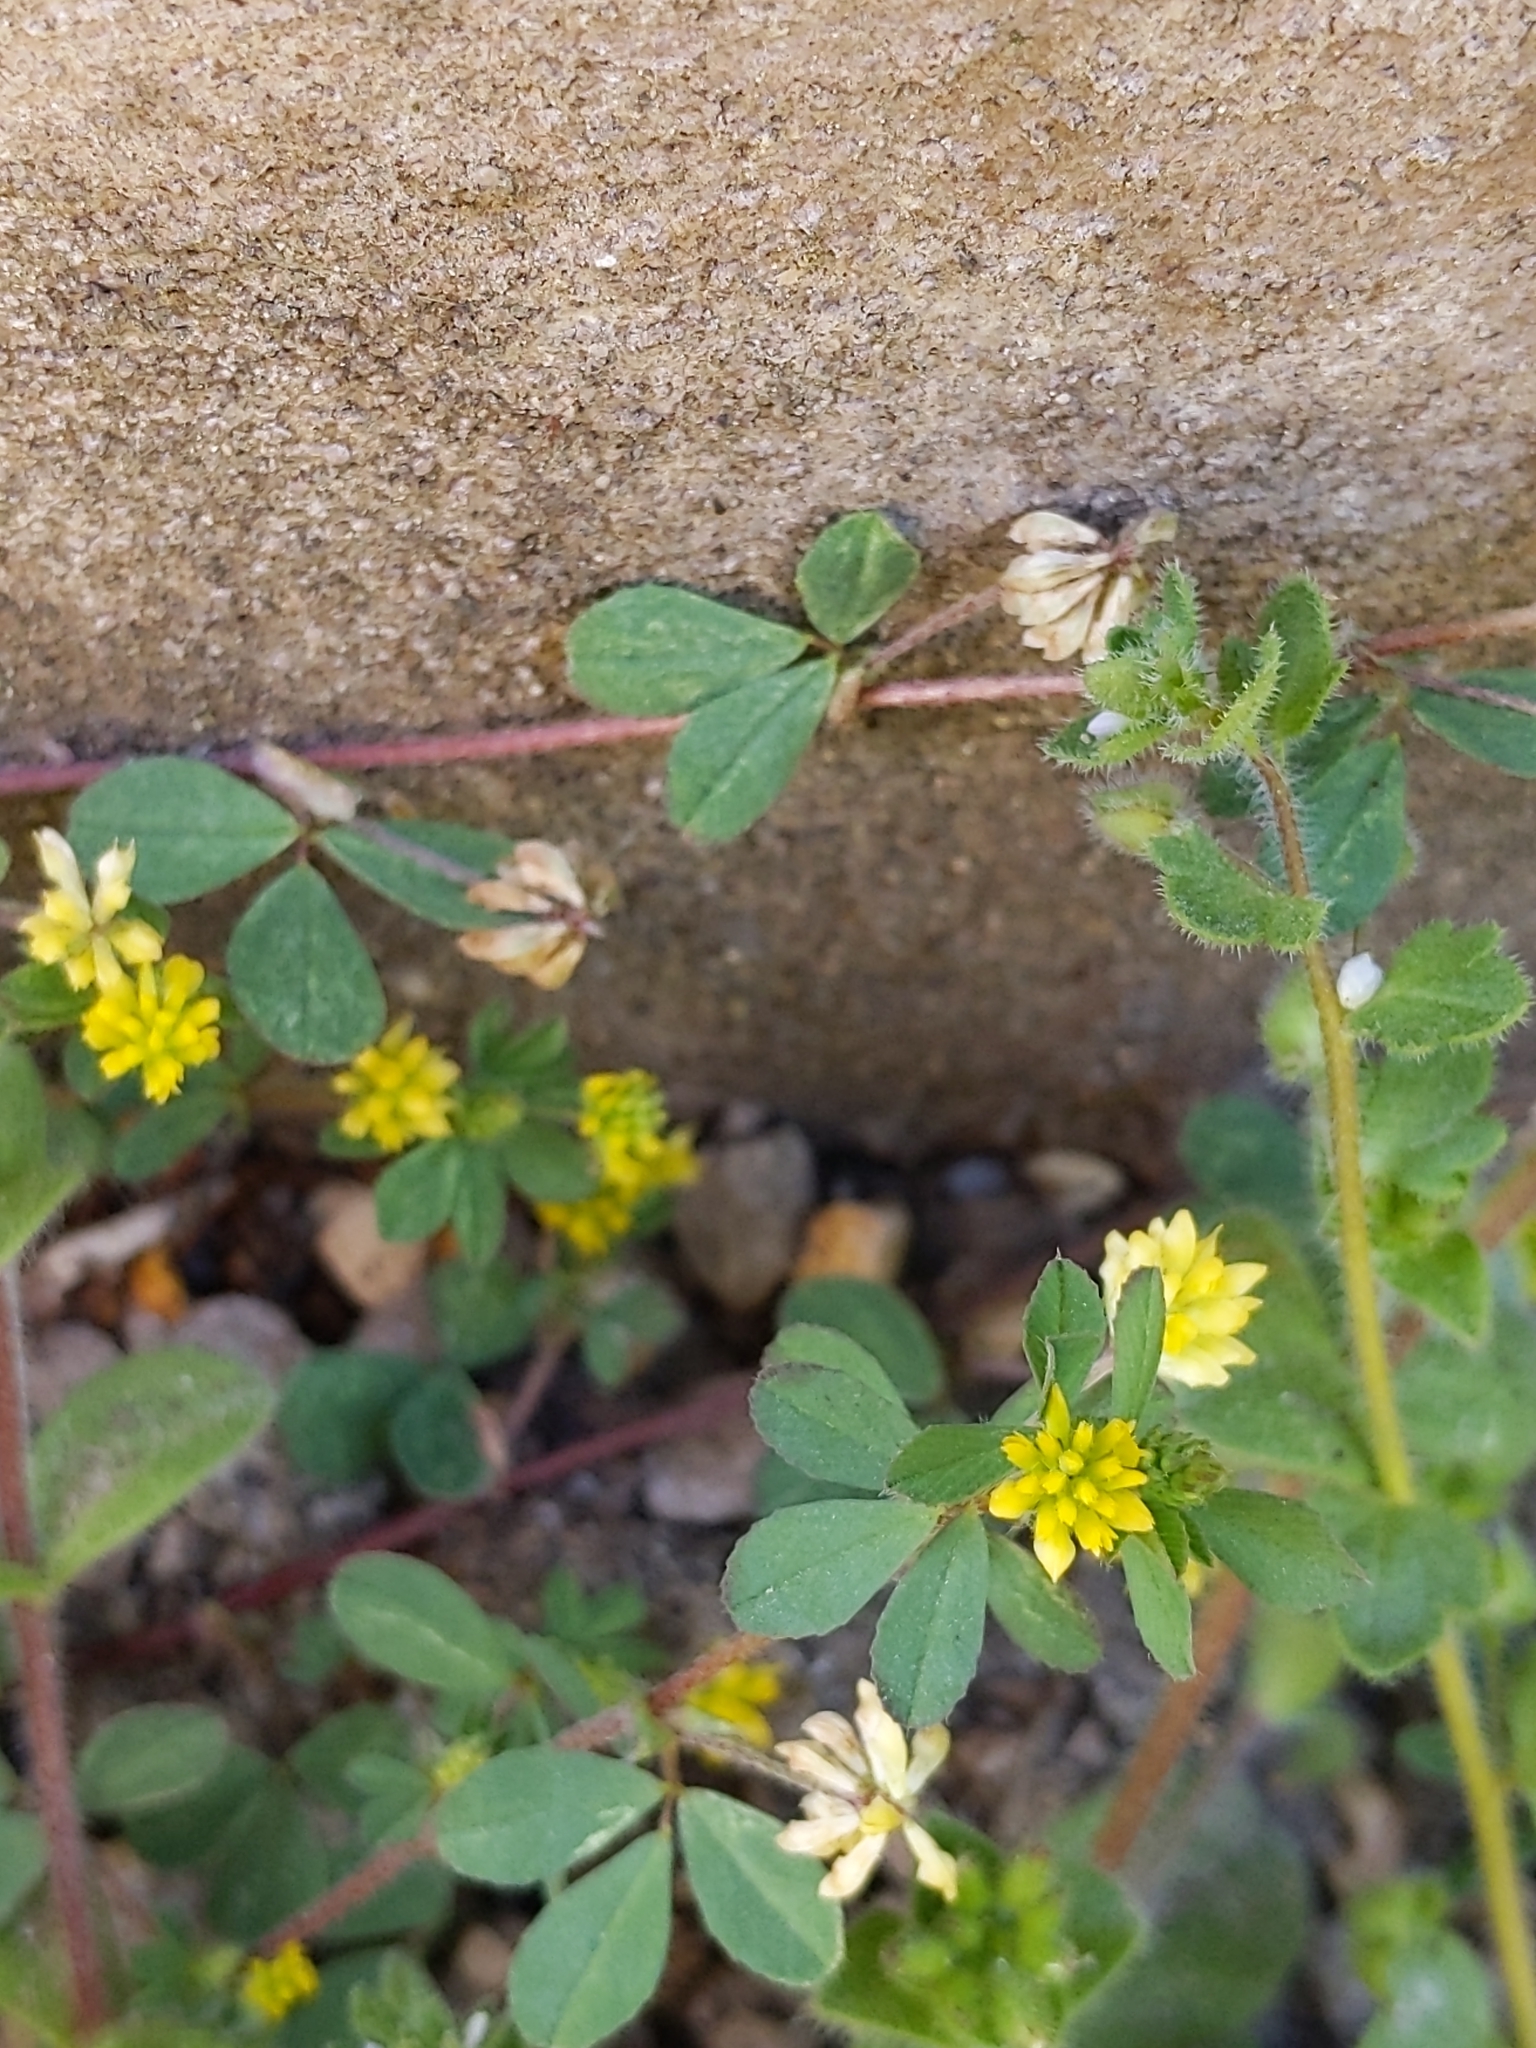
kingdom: Plantae
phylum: Tracheophyta
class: Magnoliopsida
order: Fabales
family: Fabaceae
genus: Trifolium
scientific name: Trifolium dubium
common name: Suckling clover
